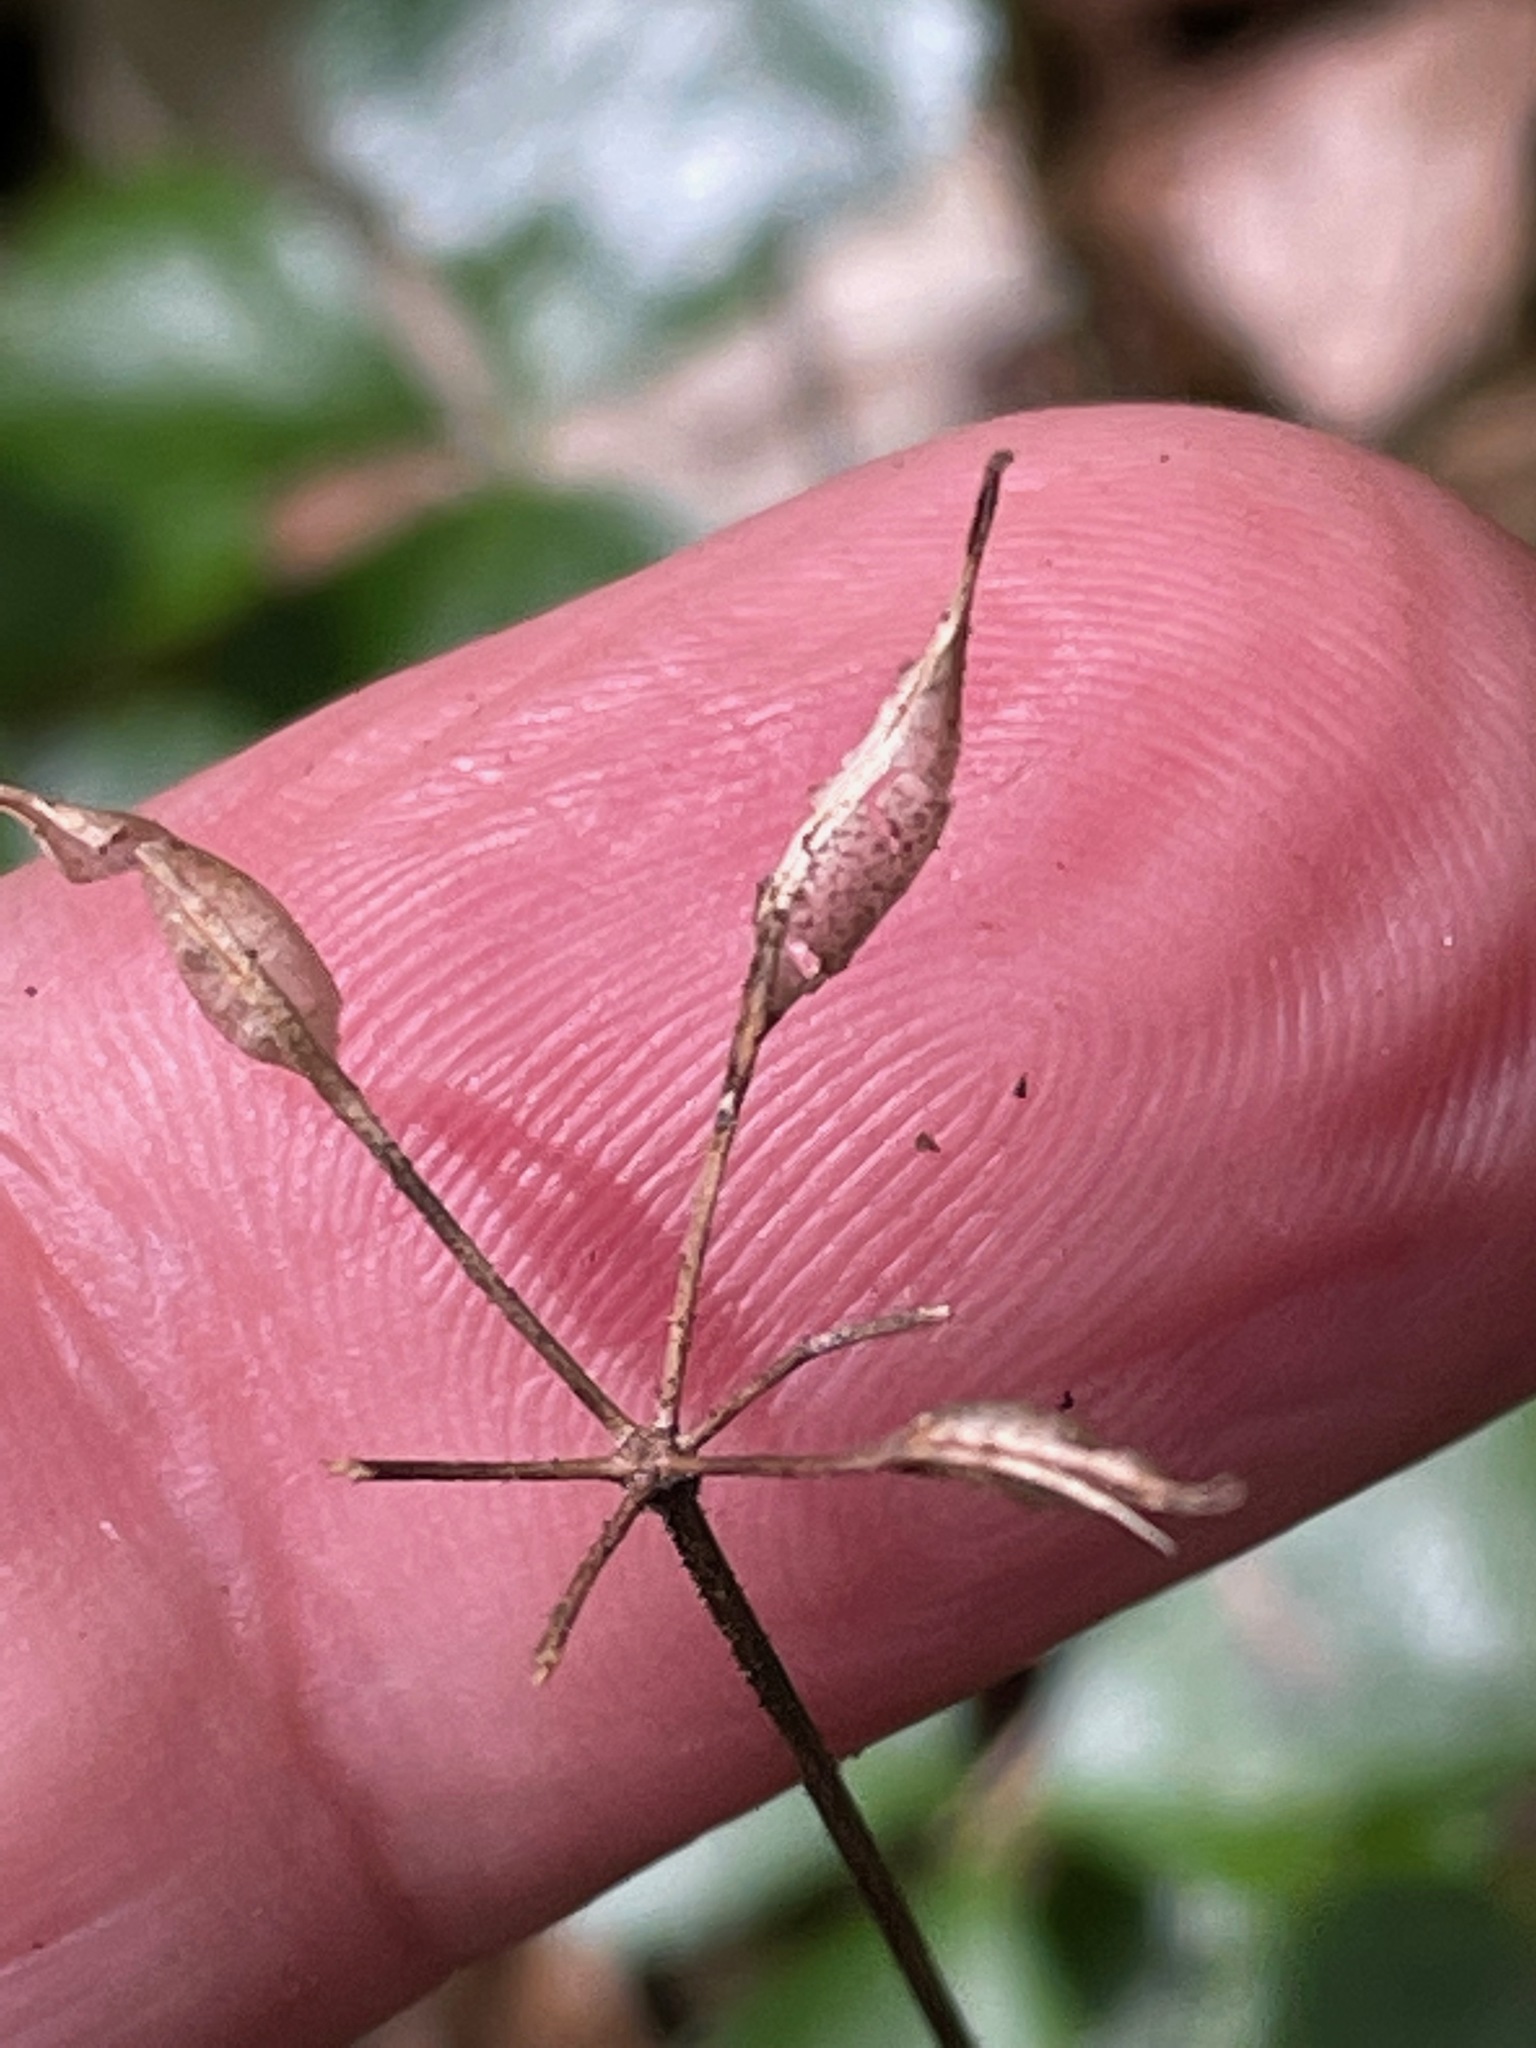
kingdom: Plantae
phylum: Tracheophyta
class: Magnoliopsida
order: Ranunculales
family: Ranunculaceae
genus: Coptis
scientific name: Coptis trifolia
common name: Canker-root
